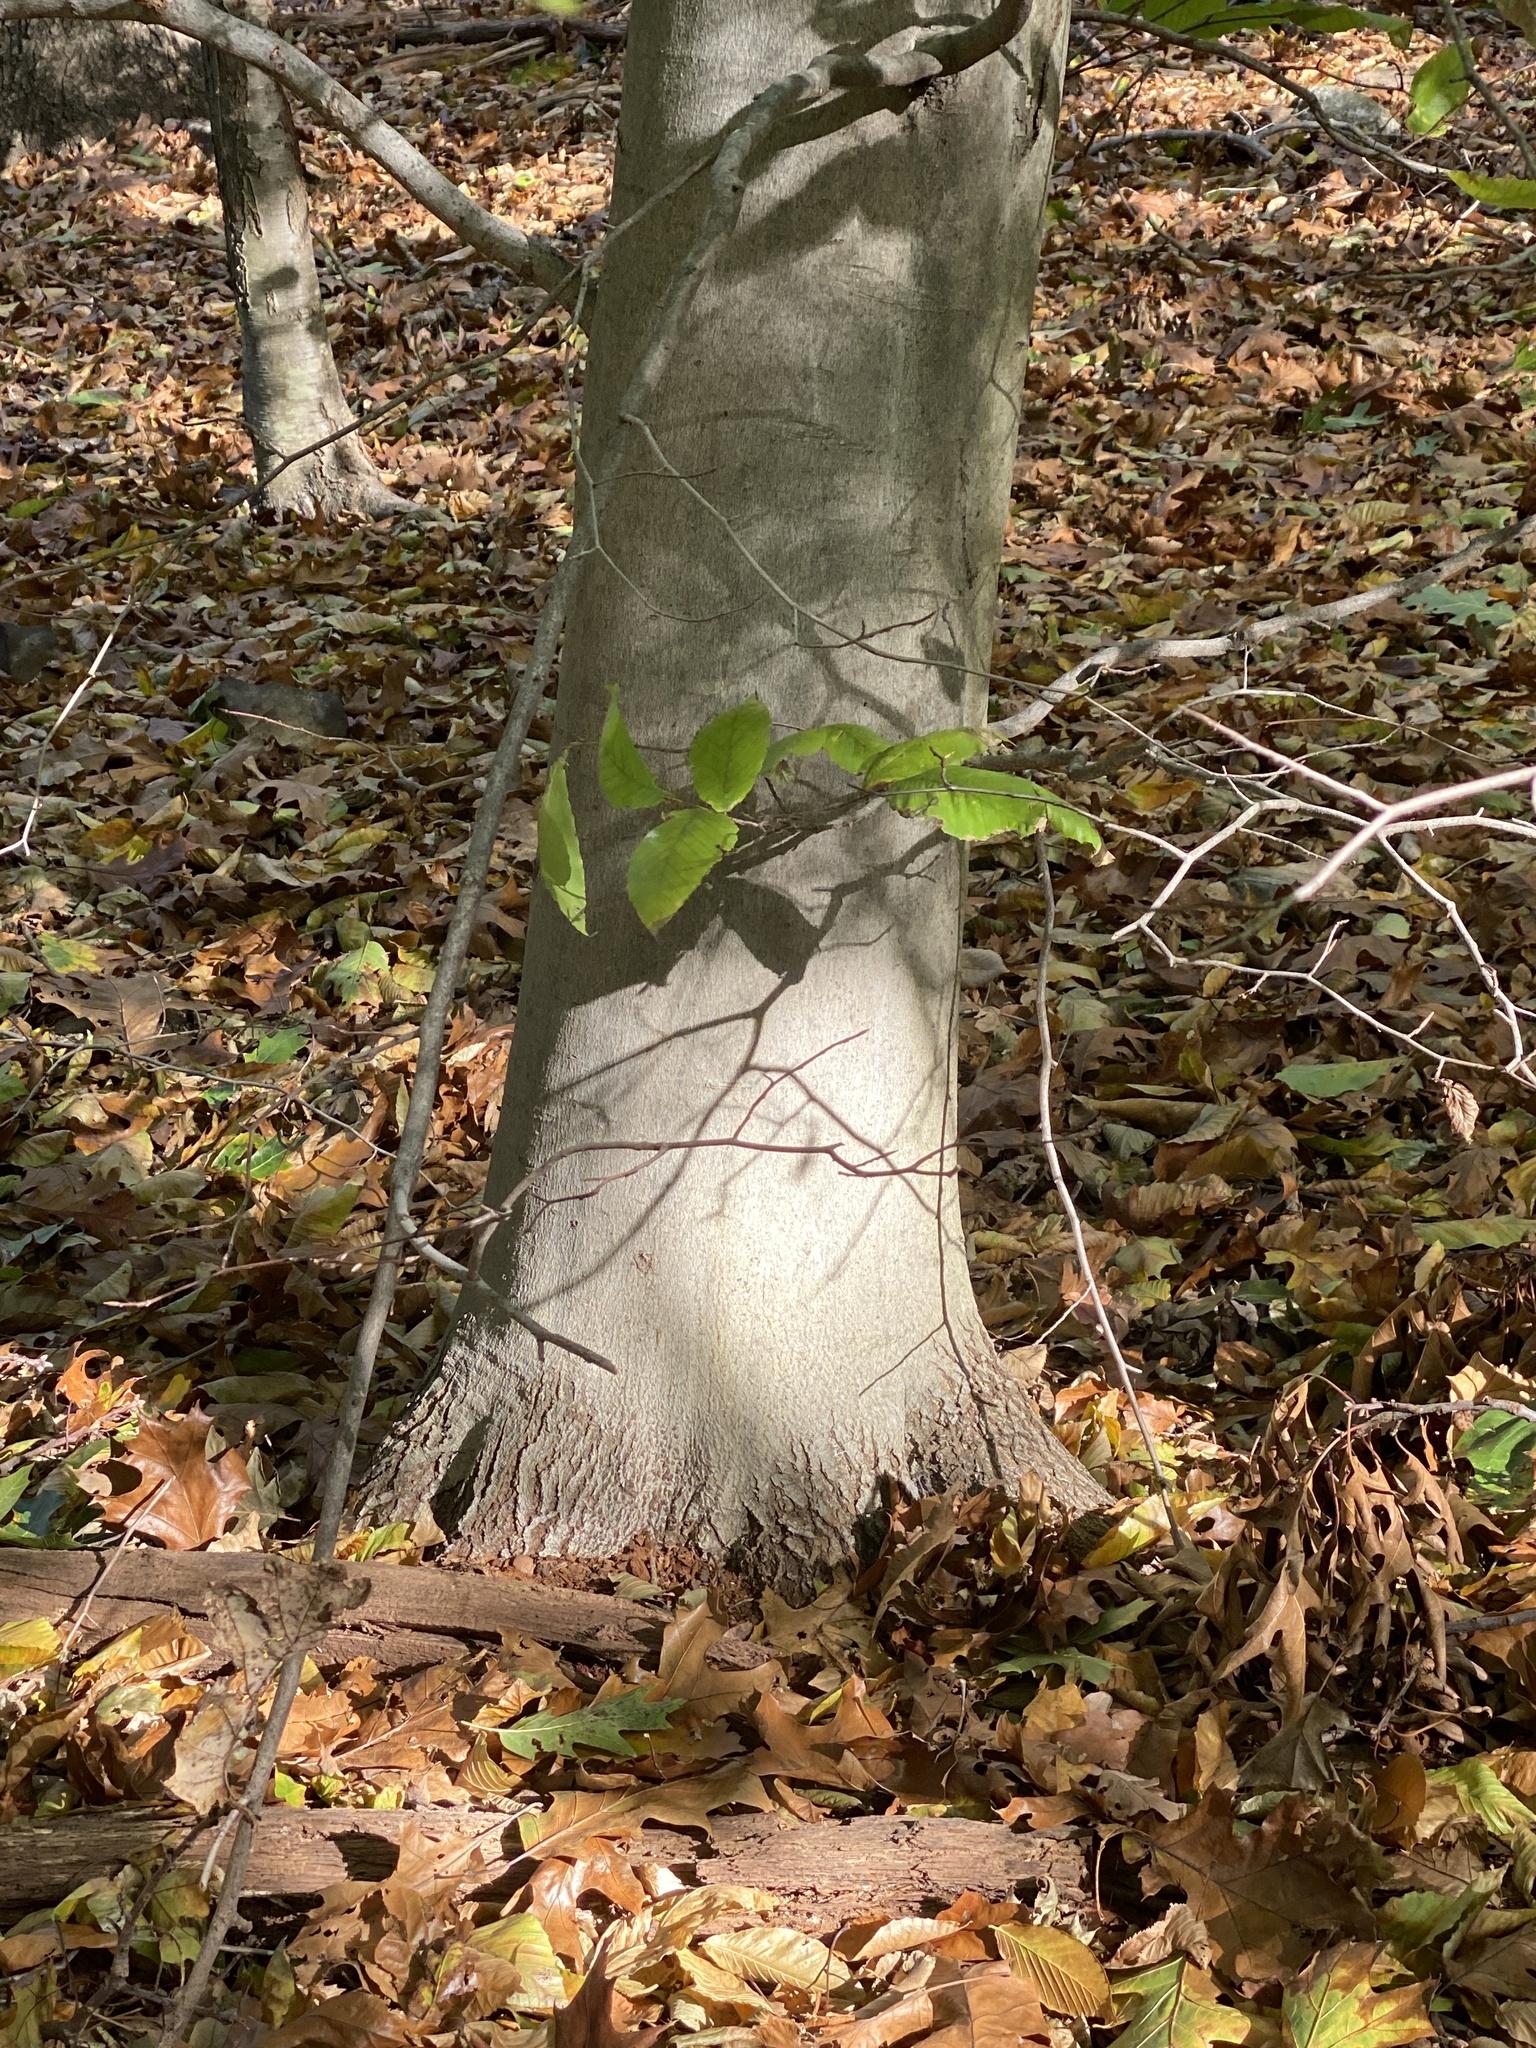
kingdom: Plantae
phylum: Tracheophyta
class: Magnoliopsida
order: Fagales
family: Fagaceae
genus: Fagus
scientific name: Fagus grandifolia
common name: American beech
